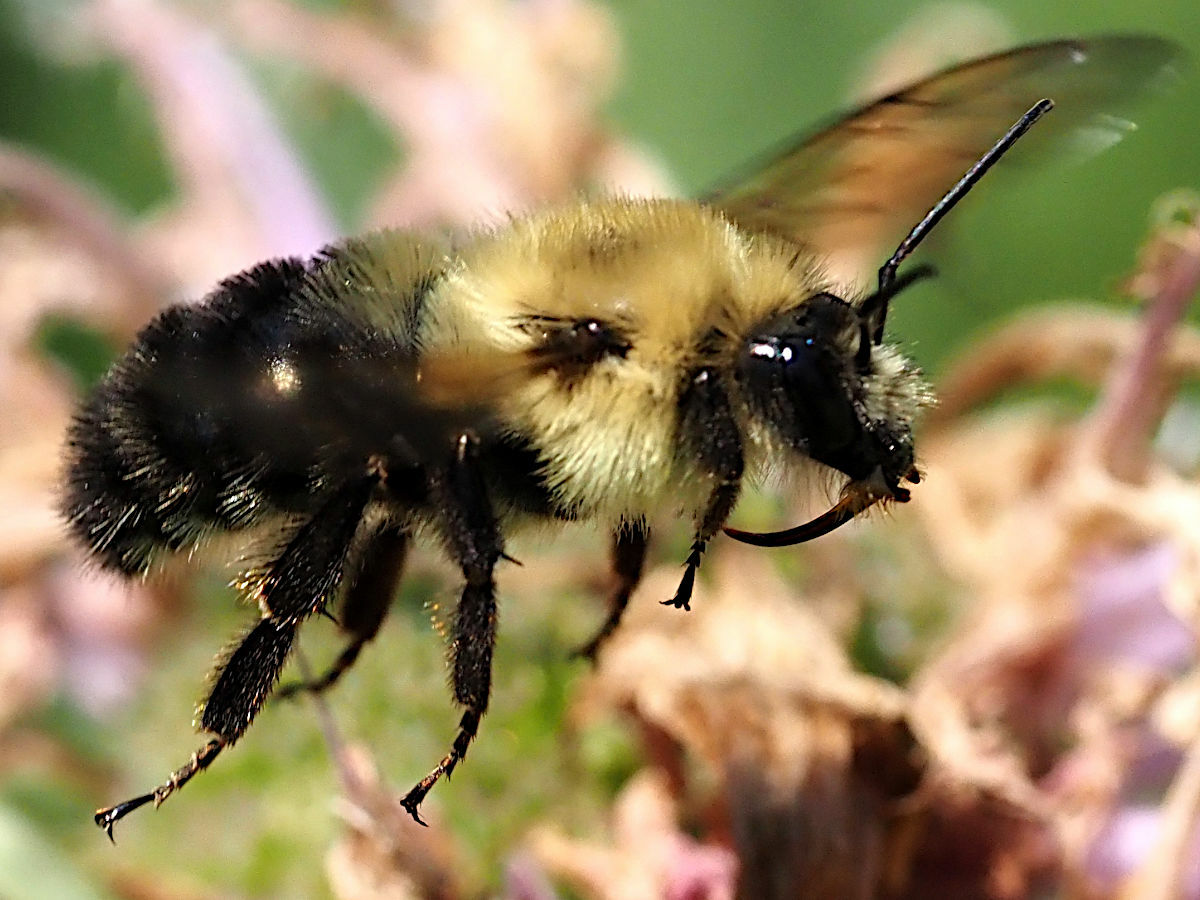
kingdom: Animalia
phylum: Arthropoda
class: Insecta
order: Hymenoptera
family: Apidae
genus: Bombus
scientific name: Bombus bimaculatus
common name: Two-spotted bumble bee
